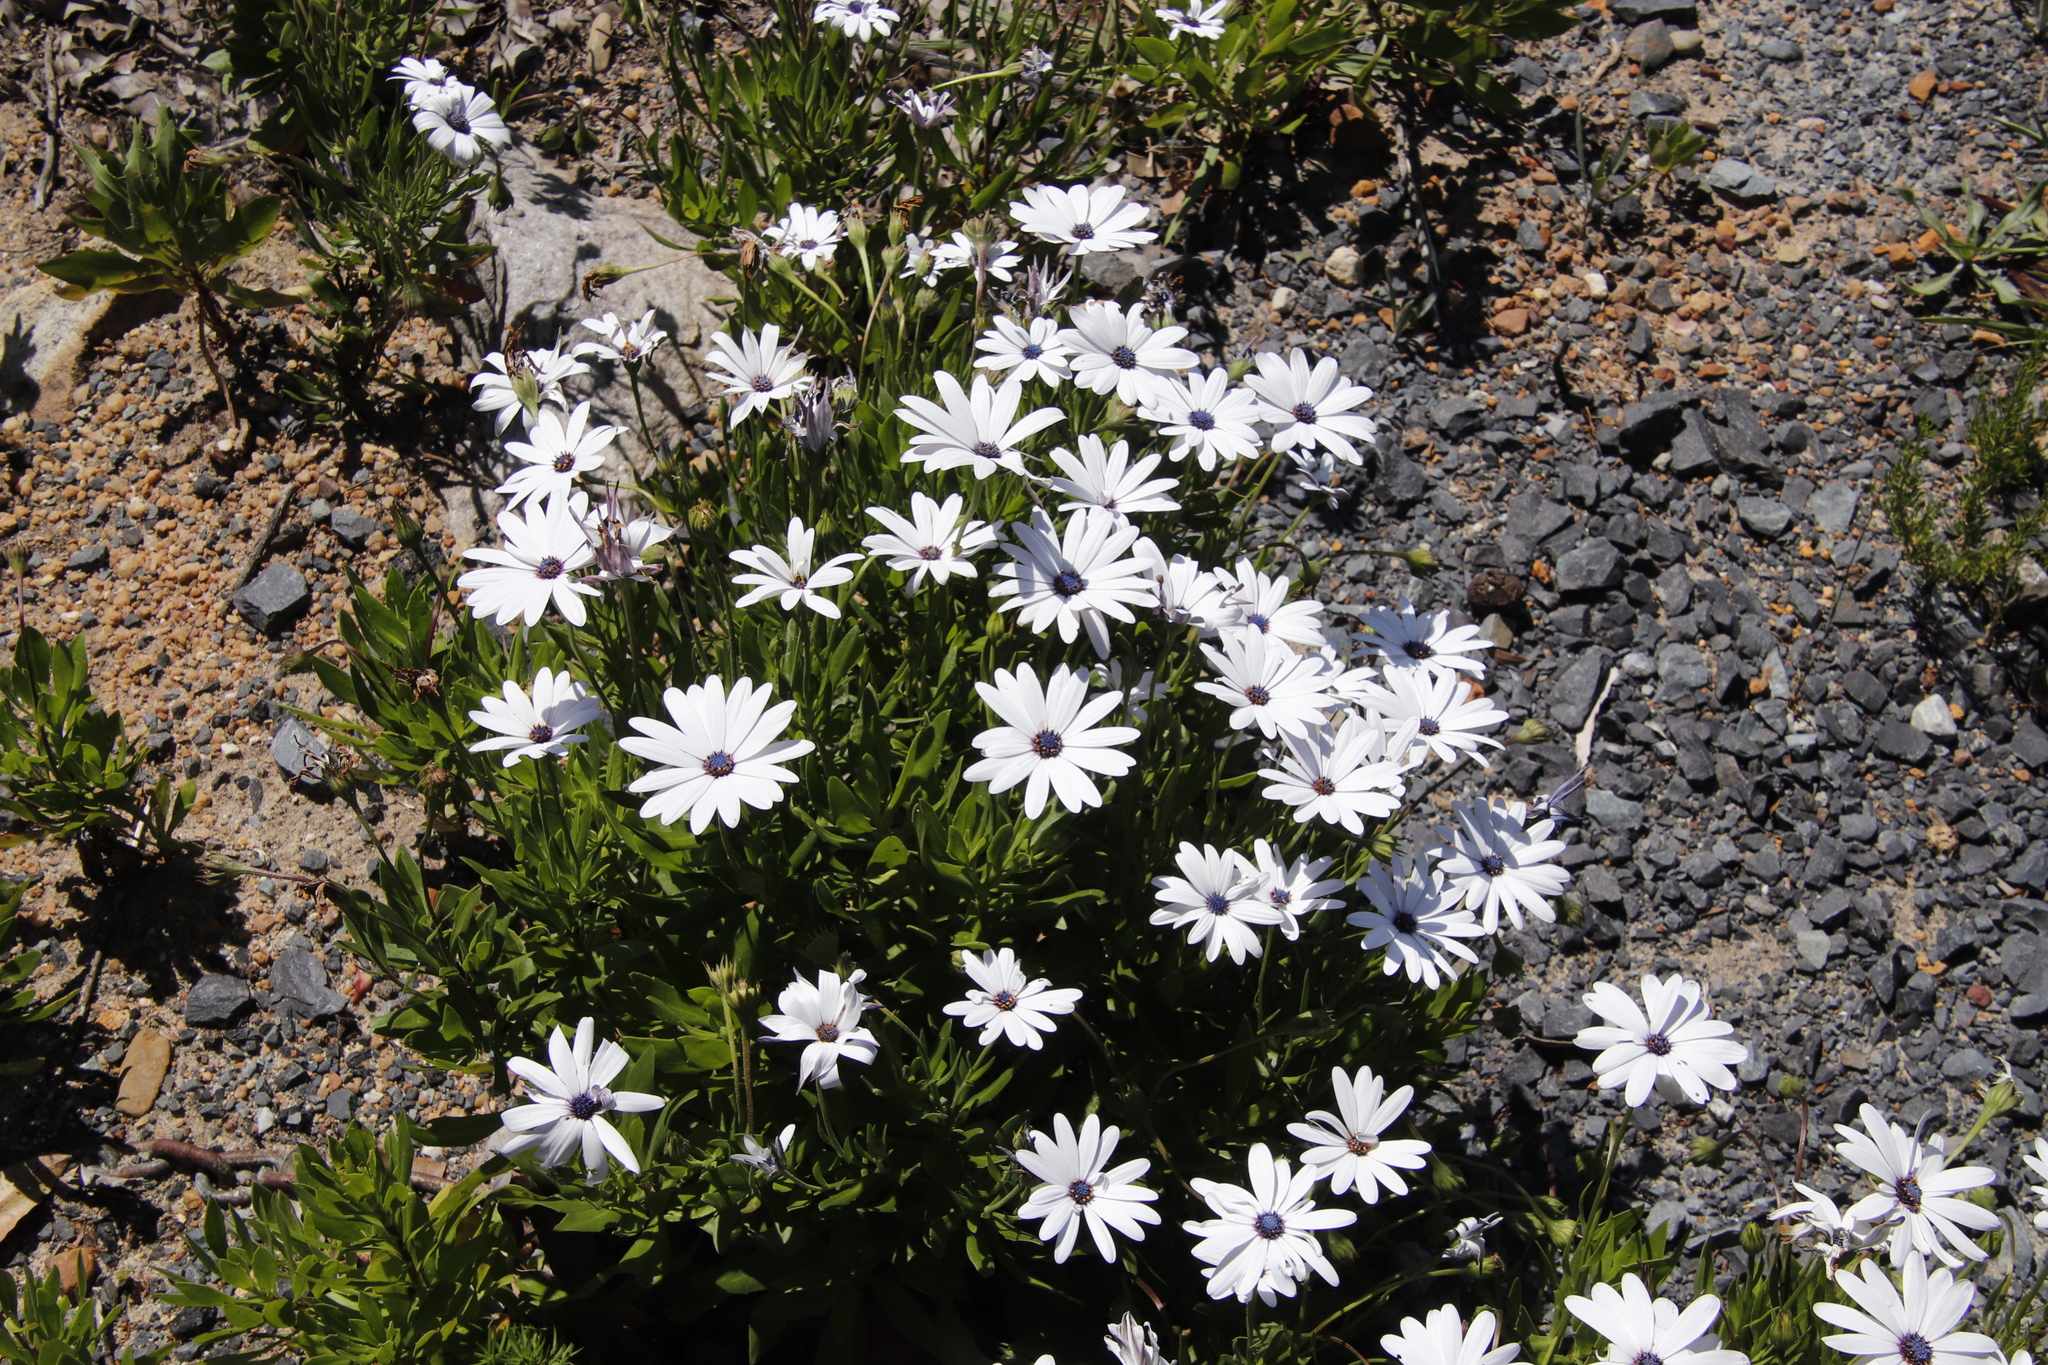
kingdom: Plantae
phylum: Tracheophyta
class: Magnoliopsida
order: Asterales
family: Asteraceae
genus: Dimorphotheca
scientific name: Dimorphotheca ecklonis
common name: Vanstaden's river daisy
